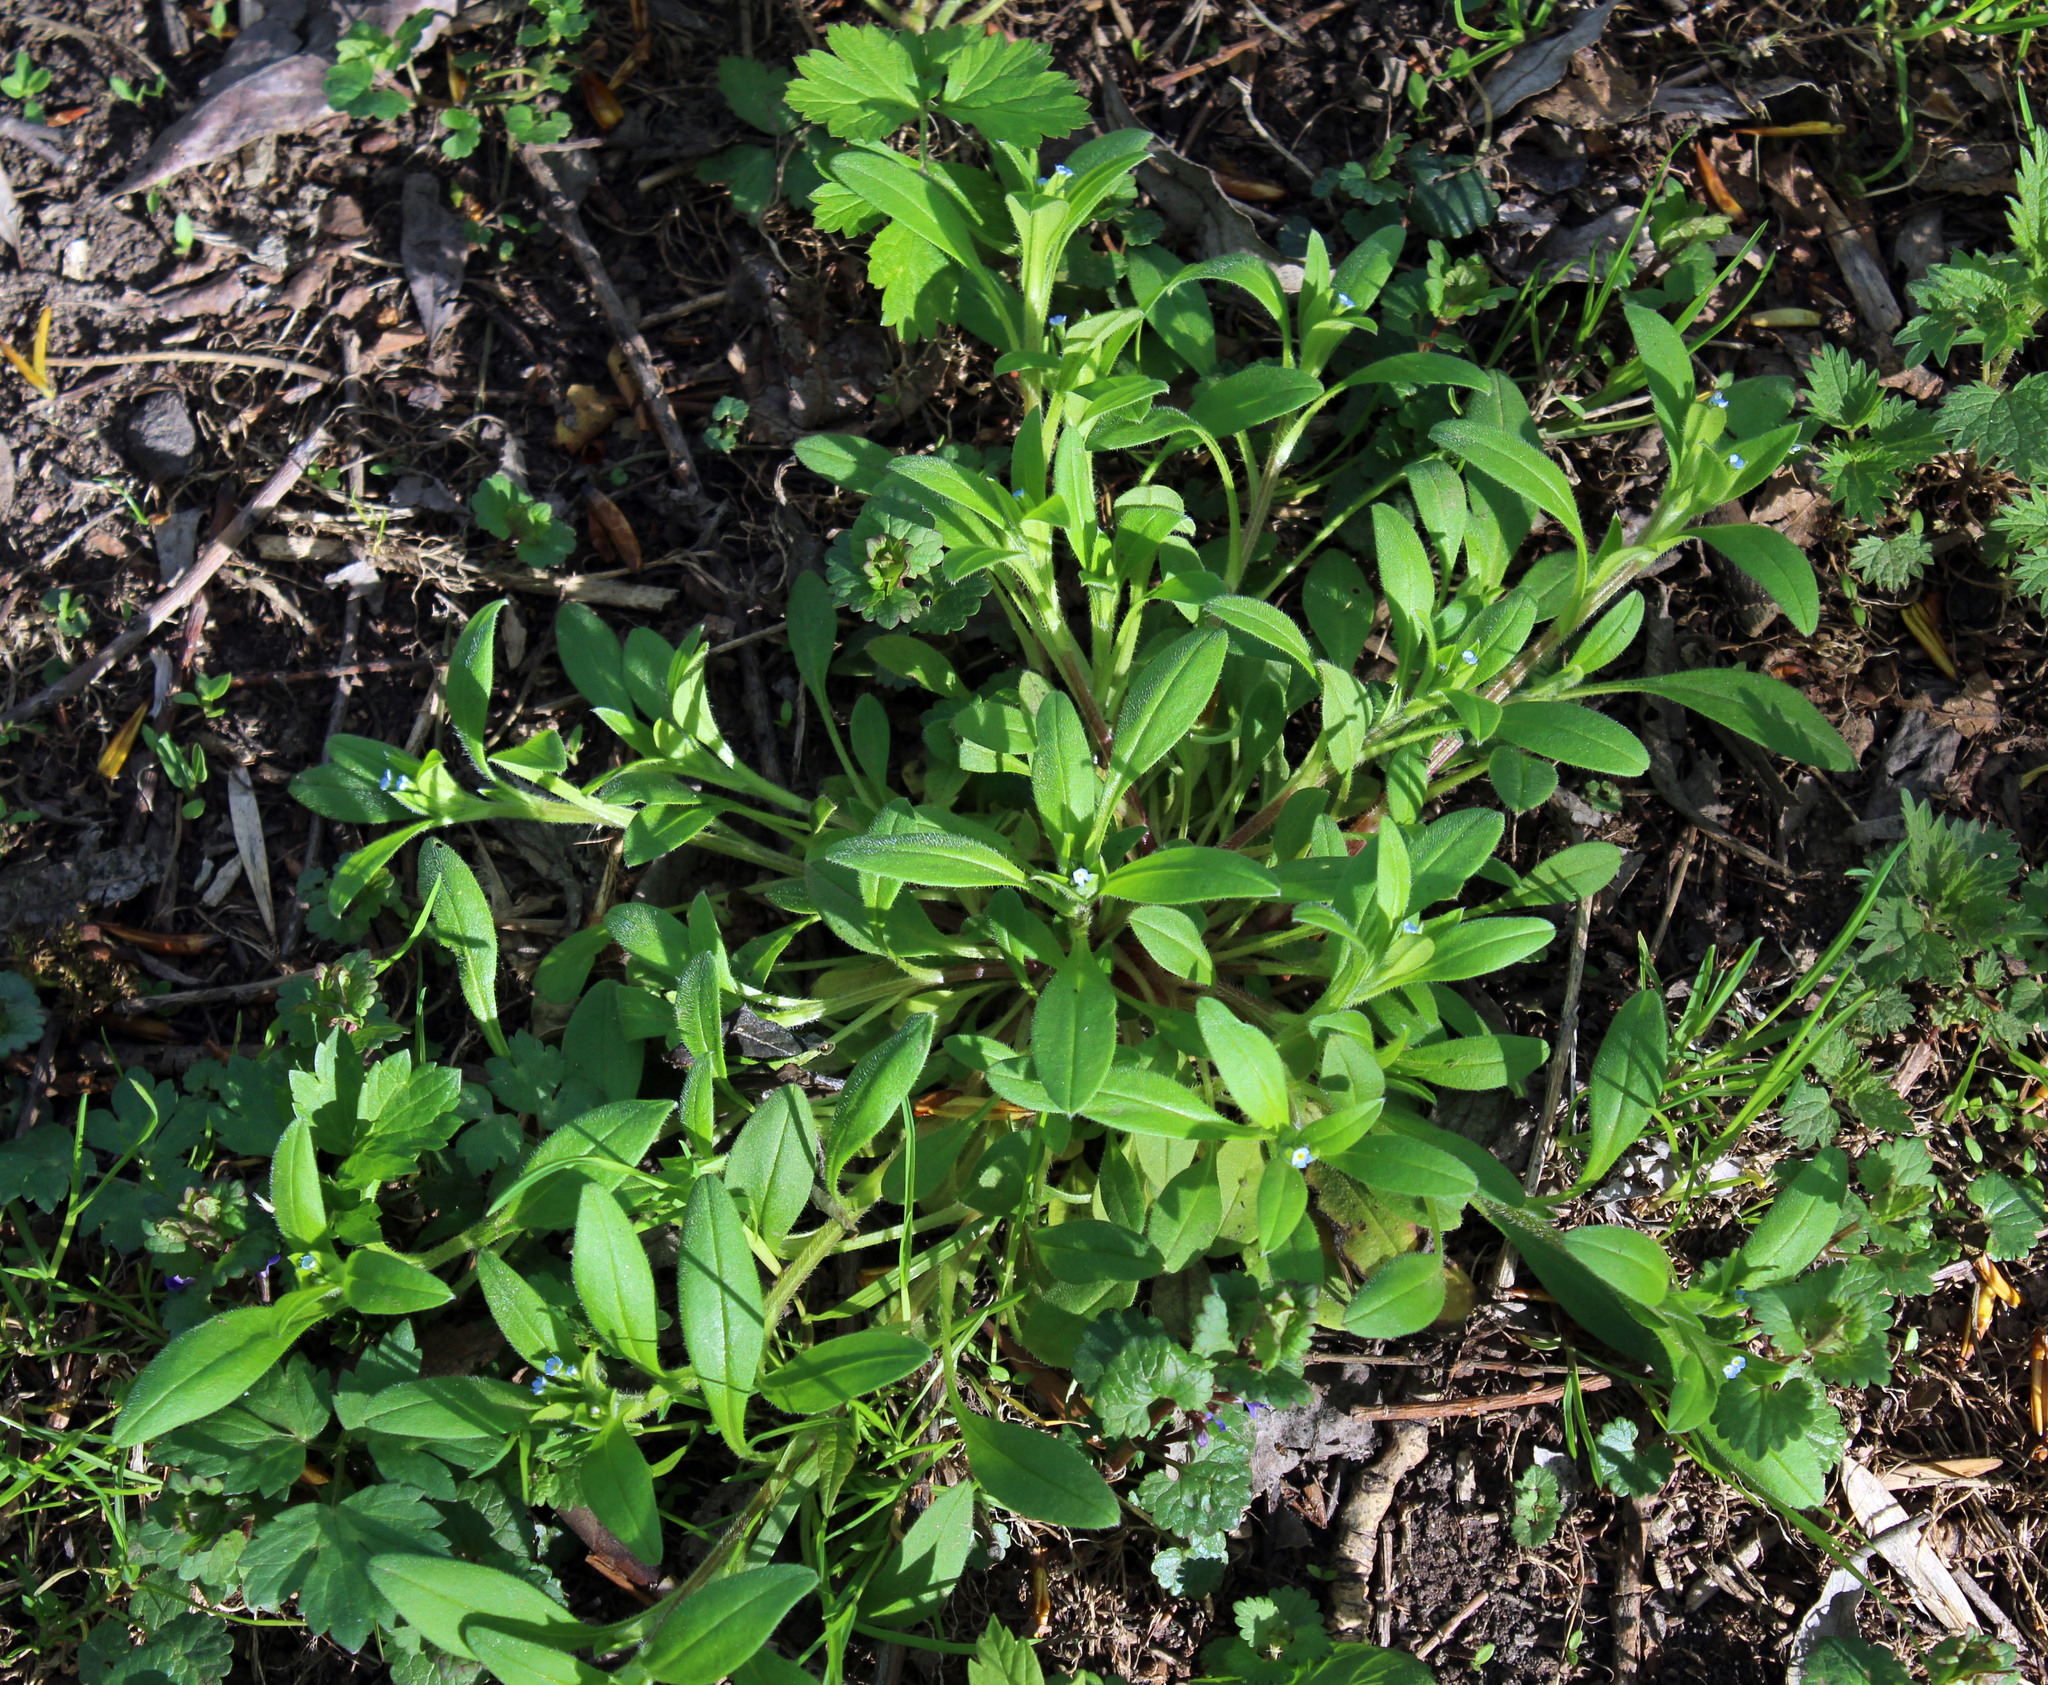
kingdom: Plantae
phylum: Tracheophyta
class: Magnoliopsida
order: Boraginales
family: Boraginaceae
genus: Myosotis
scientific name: Myosotis sparsiflora
